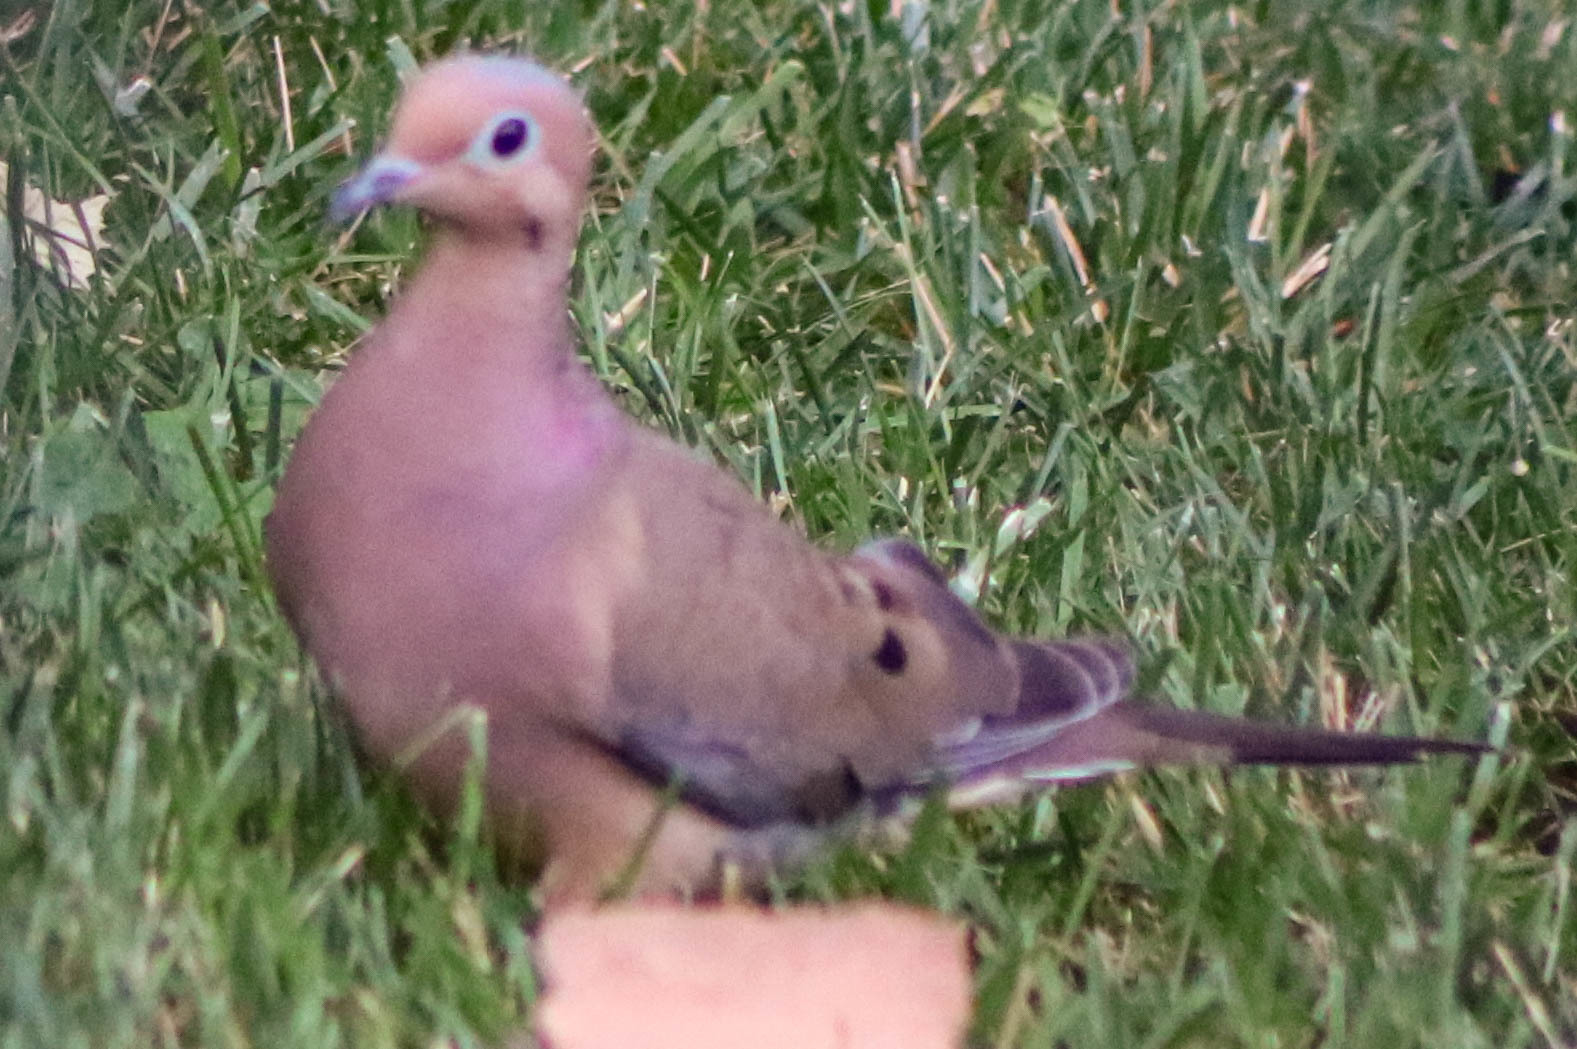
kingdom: Animalia
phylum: Chordata
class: Aves
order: Columbiformes
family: Columbidae
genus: Zenaida
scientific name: Zenaida macroura
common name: Mourning dove
